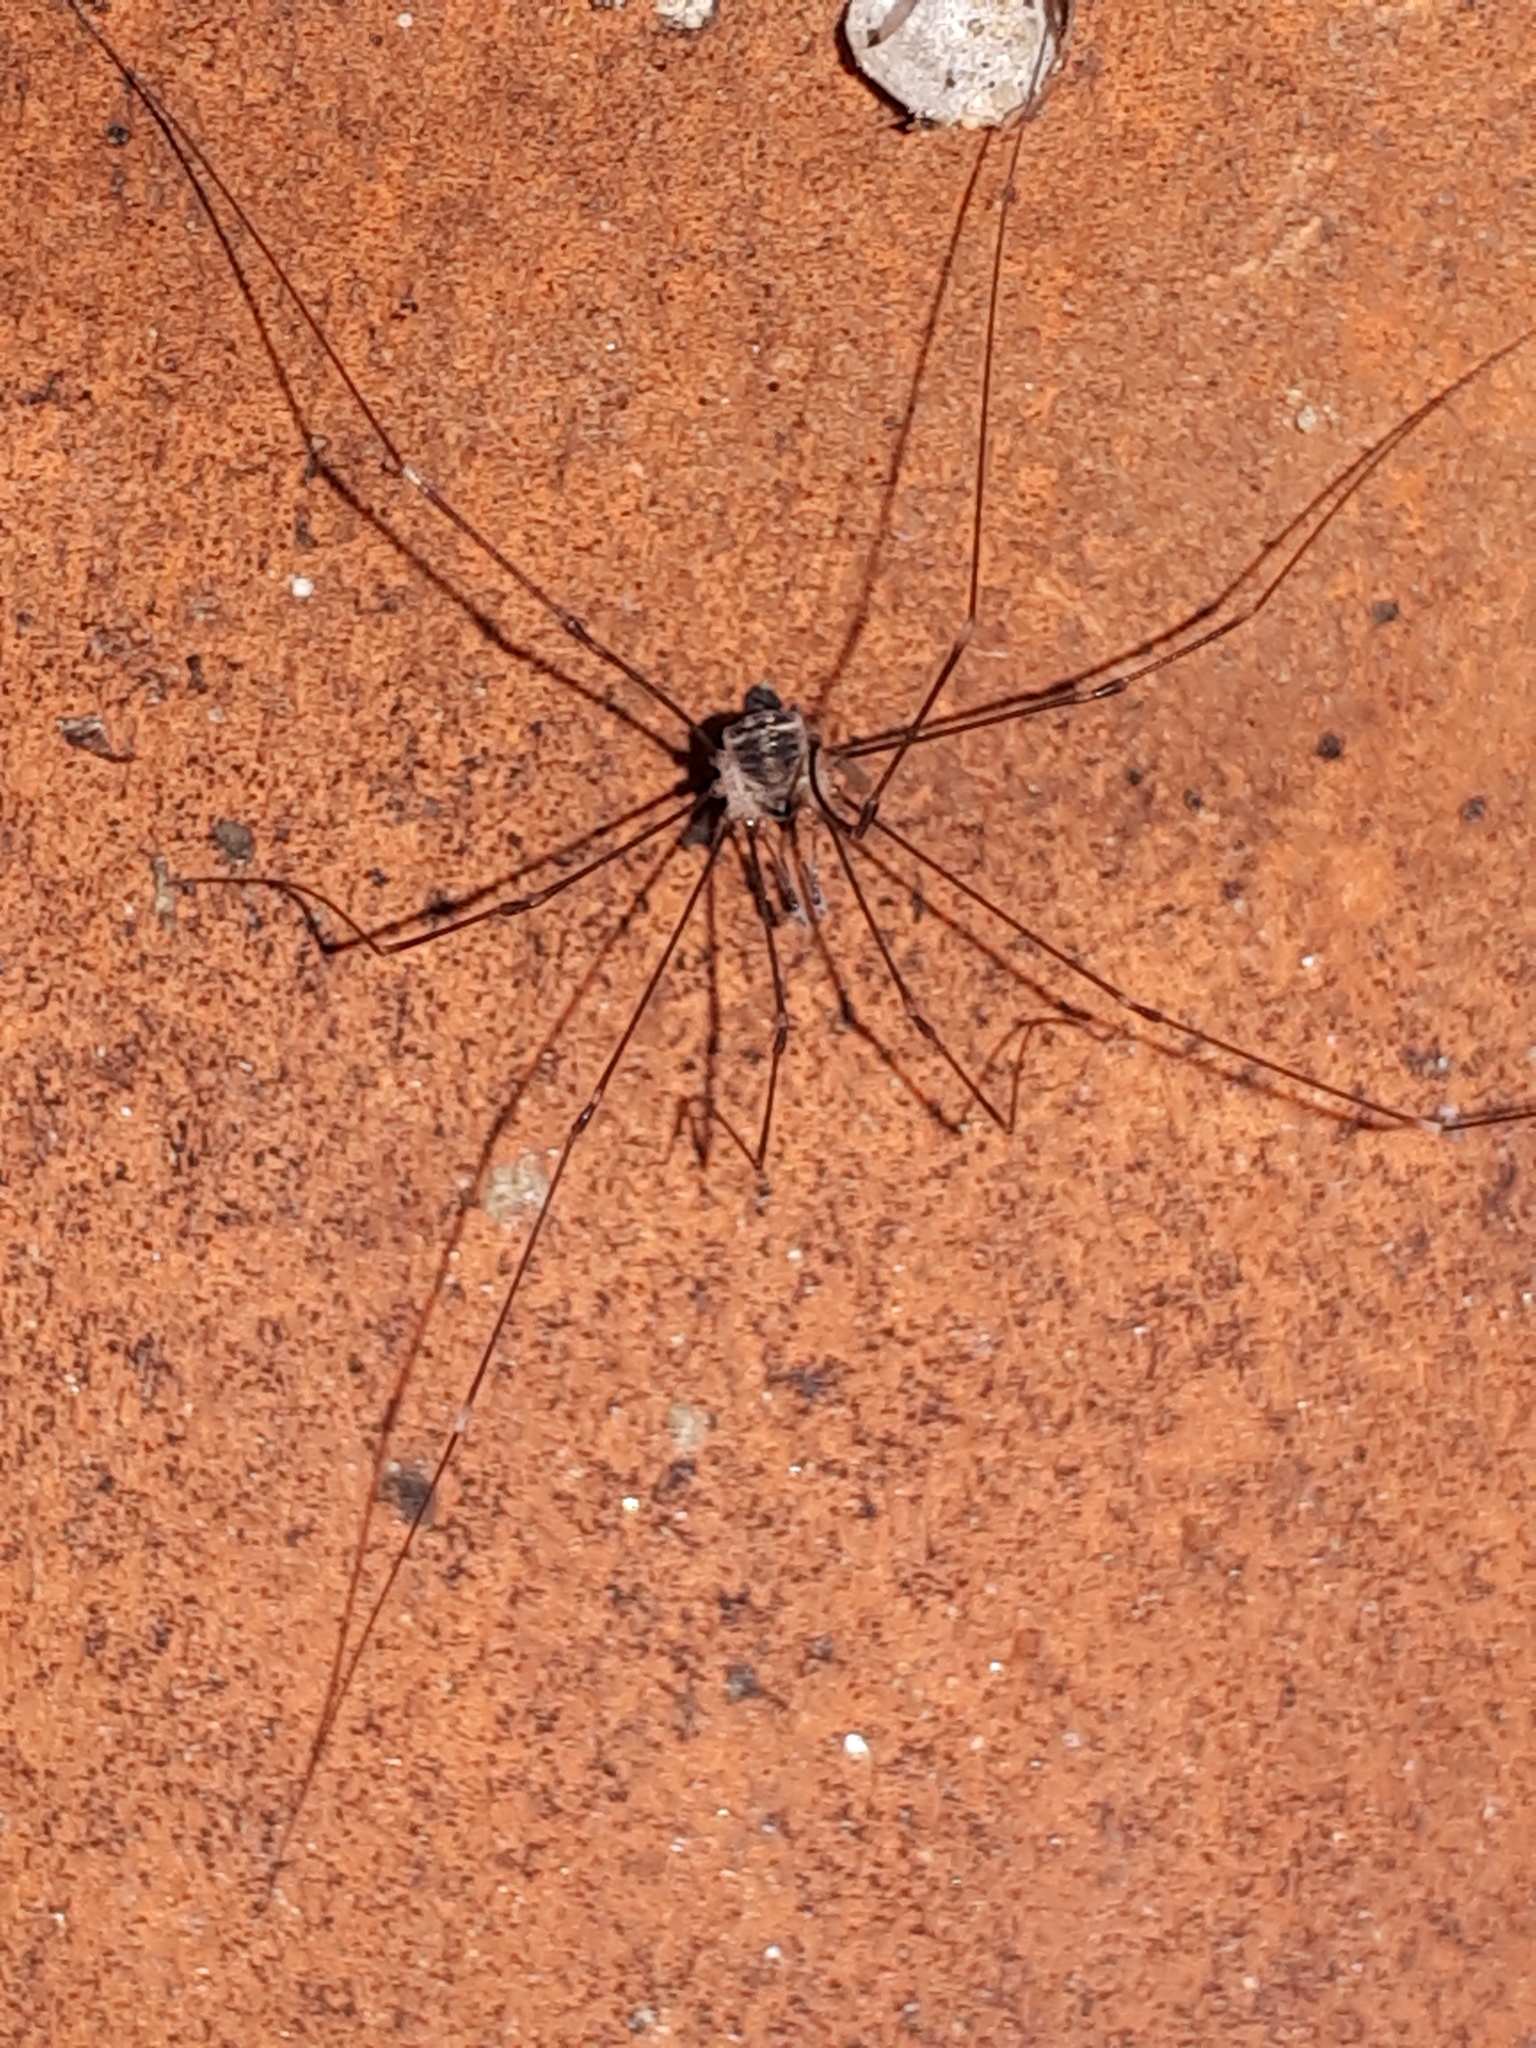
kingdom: Animalia
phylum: Arthropoda
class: Arachnida
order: Opiliones
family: Nemastomatidae
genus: Mitostoma
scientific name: Mitostoma chrysomelas
